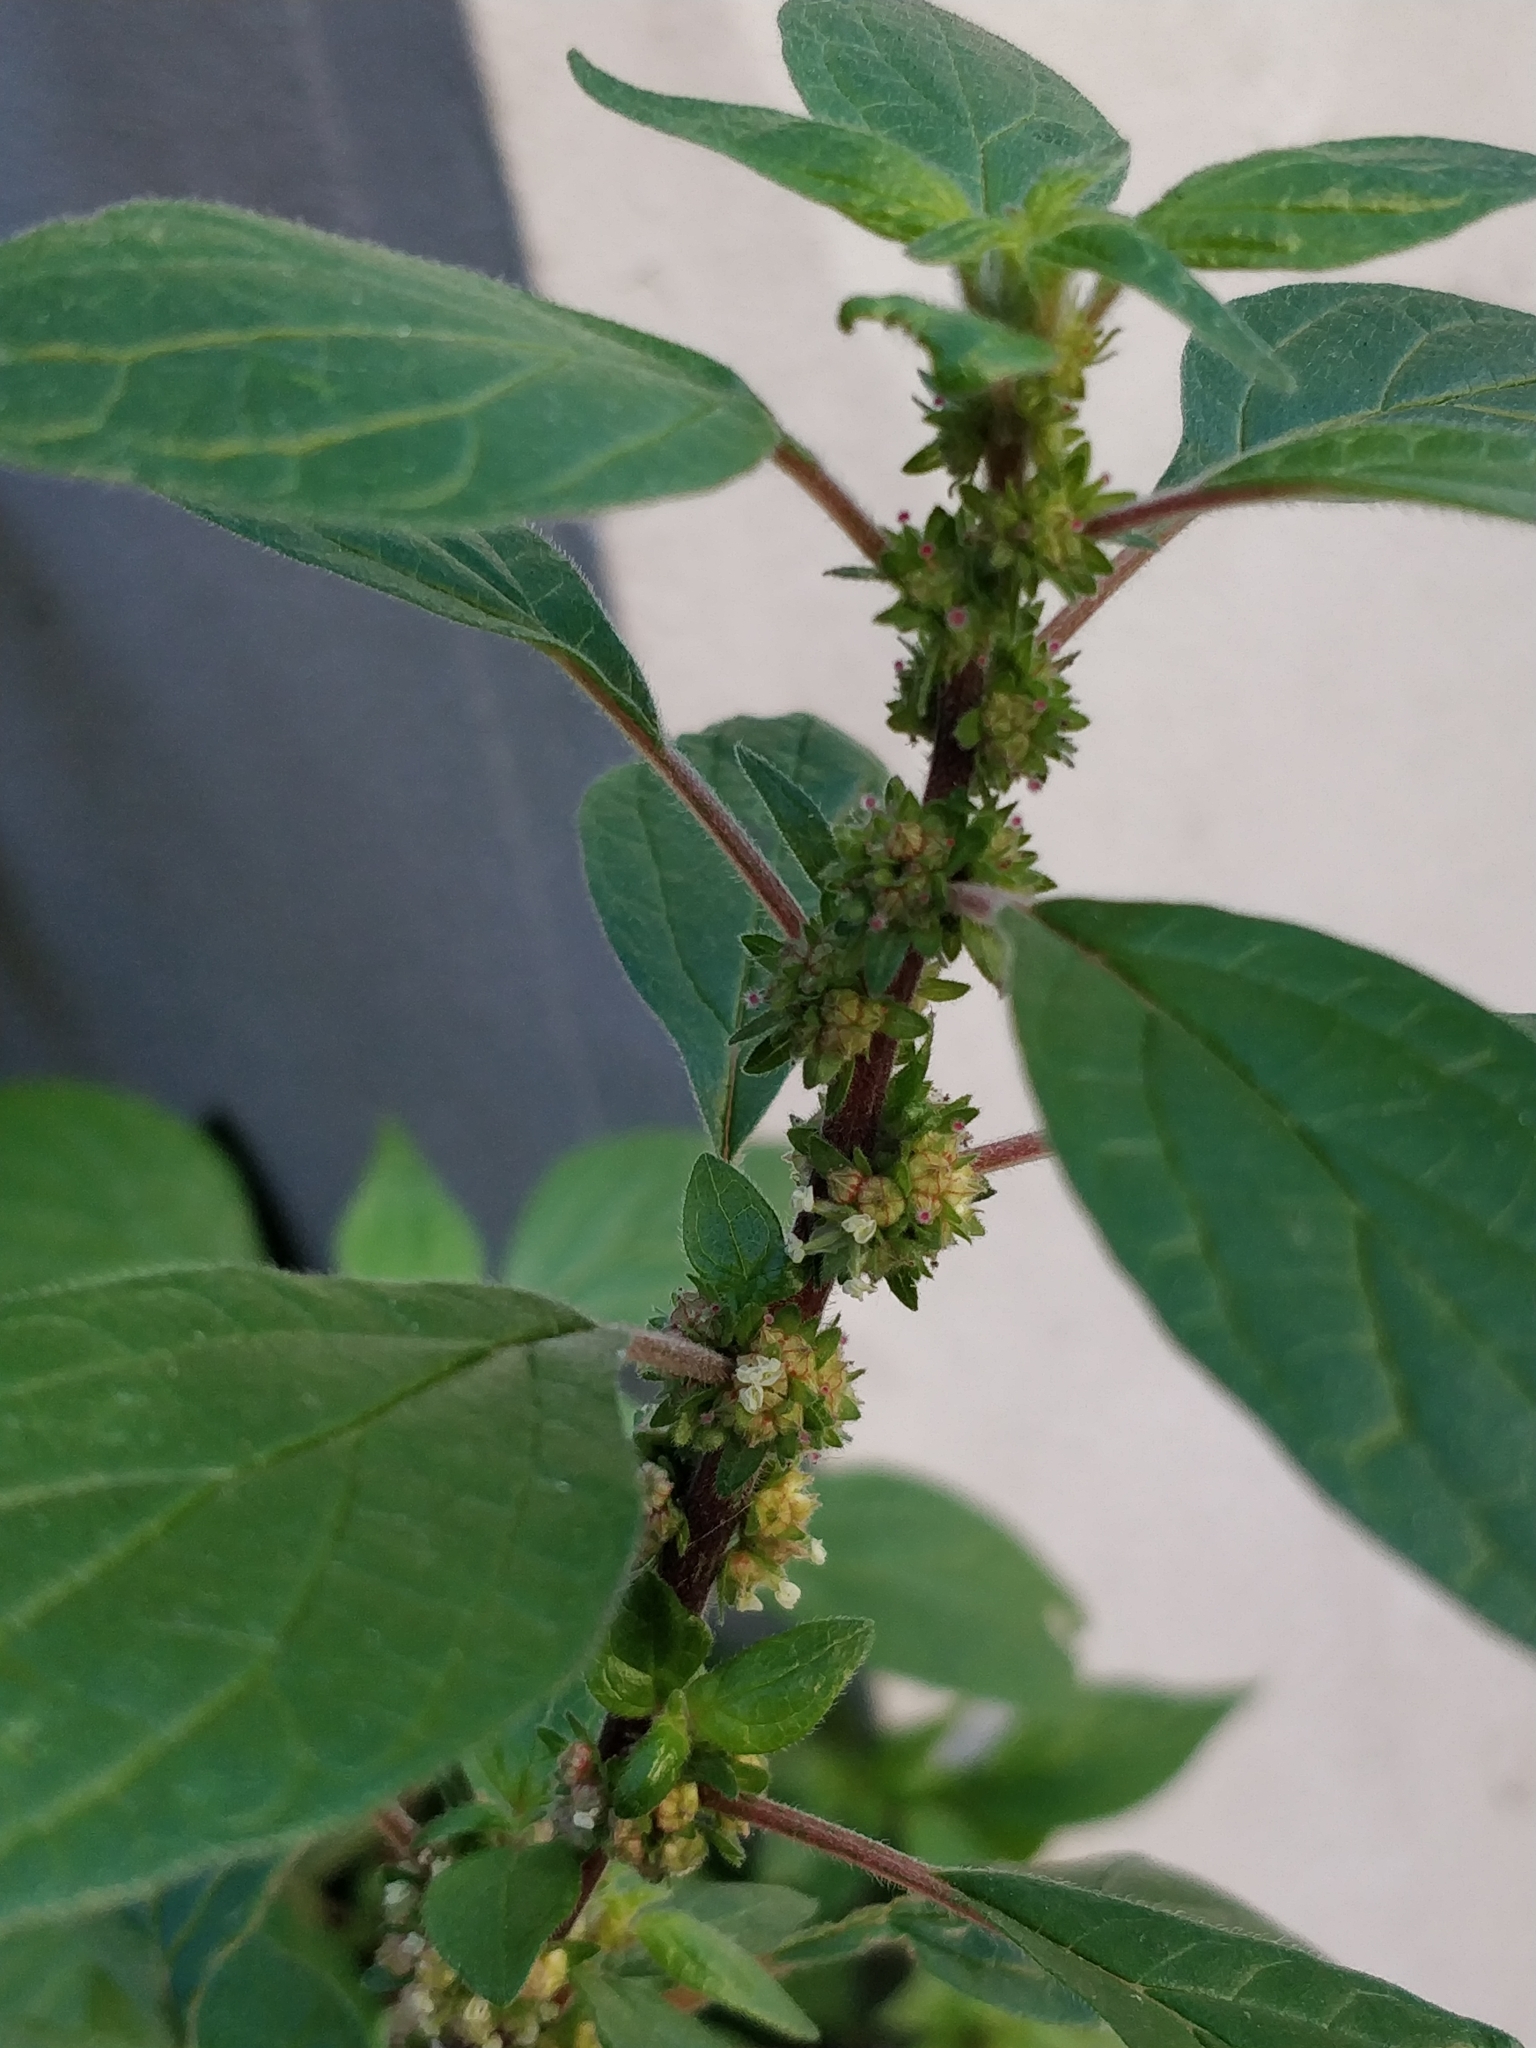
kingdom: Plantae
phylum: Tracheophyta
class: Magnoliopsida
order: Rosales
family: Urticaceae
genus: Parietaria
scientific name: Parietaria judaica
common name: Pellitory-of-the-wall
